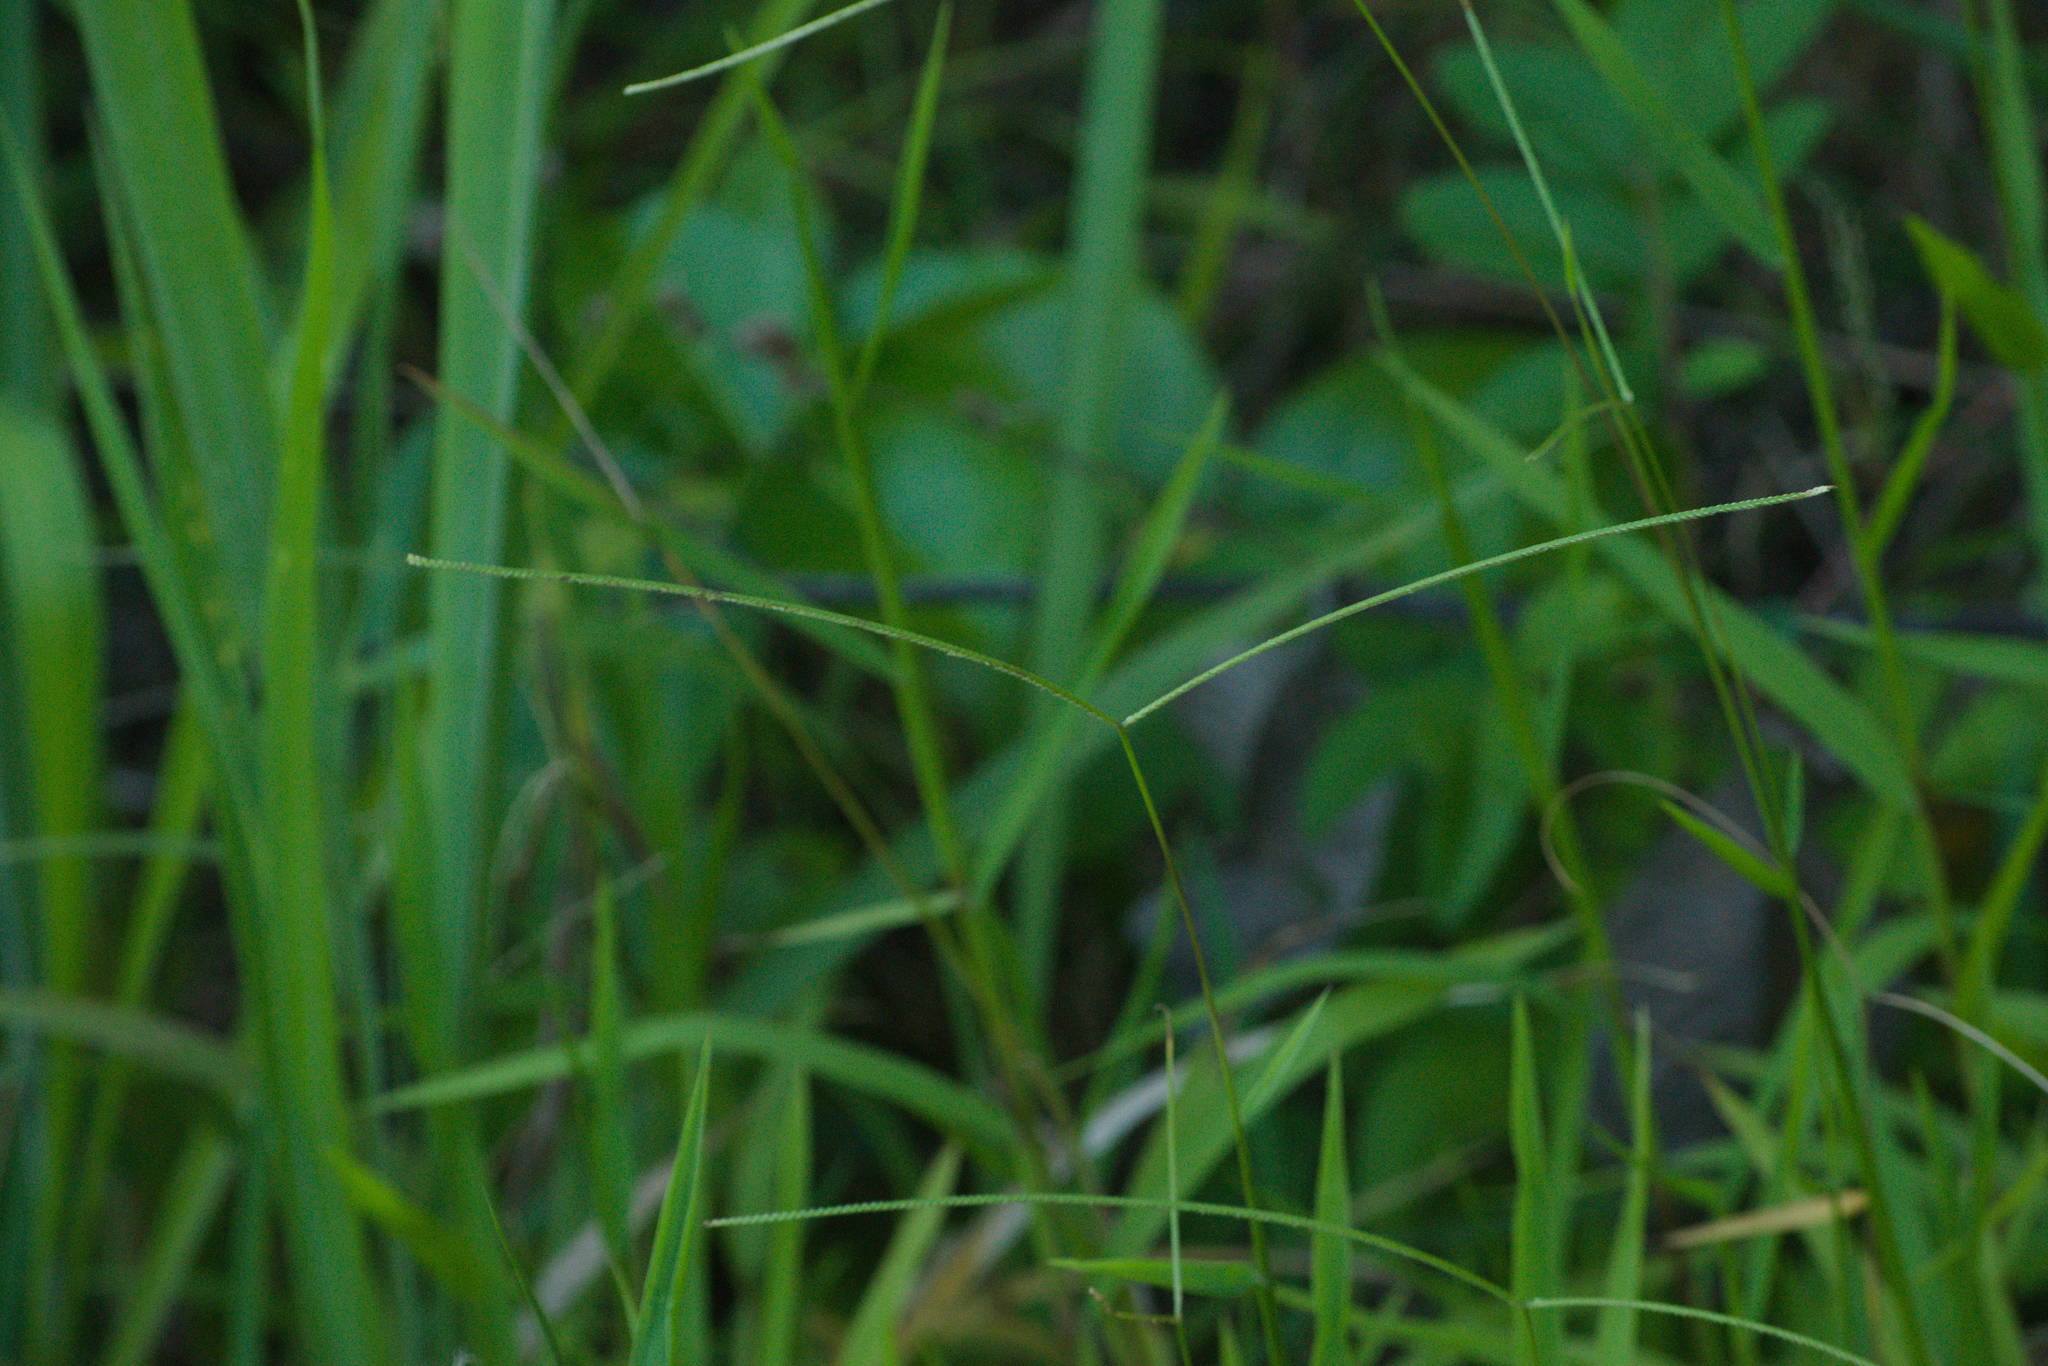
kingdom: Plantae
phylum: Tracheophyta
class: Liliopsida
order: Poales
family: Poaceae
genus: Paspalum
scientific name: Paspalum conjugatum
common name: Hilograss
